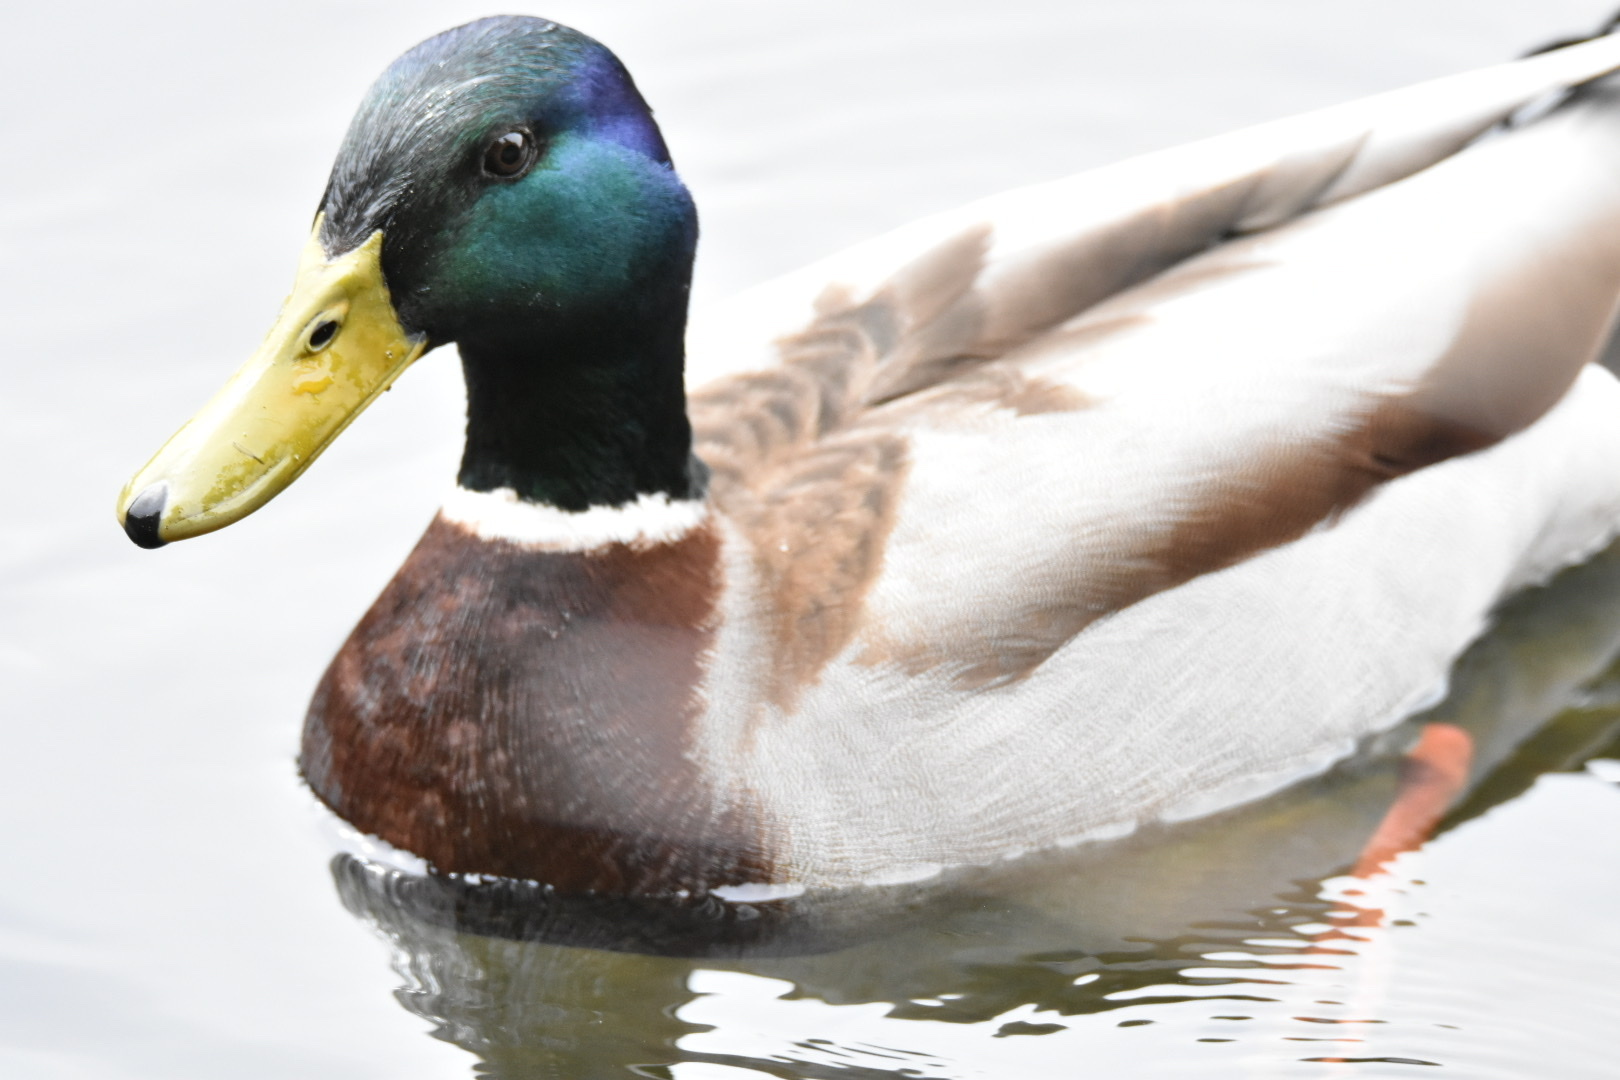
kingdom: Animalia
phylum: Chordata
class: Aves
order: Anseriformes
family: Anatidae
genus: Anas
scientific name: Anas platyrhynchos
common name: Mallard
